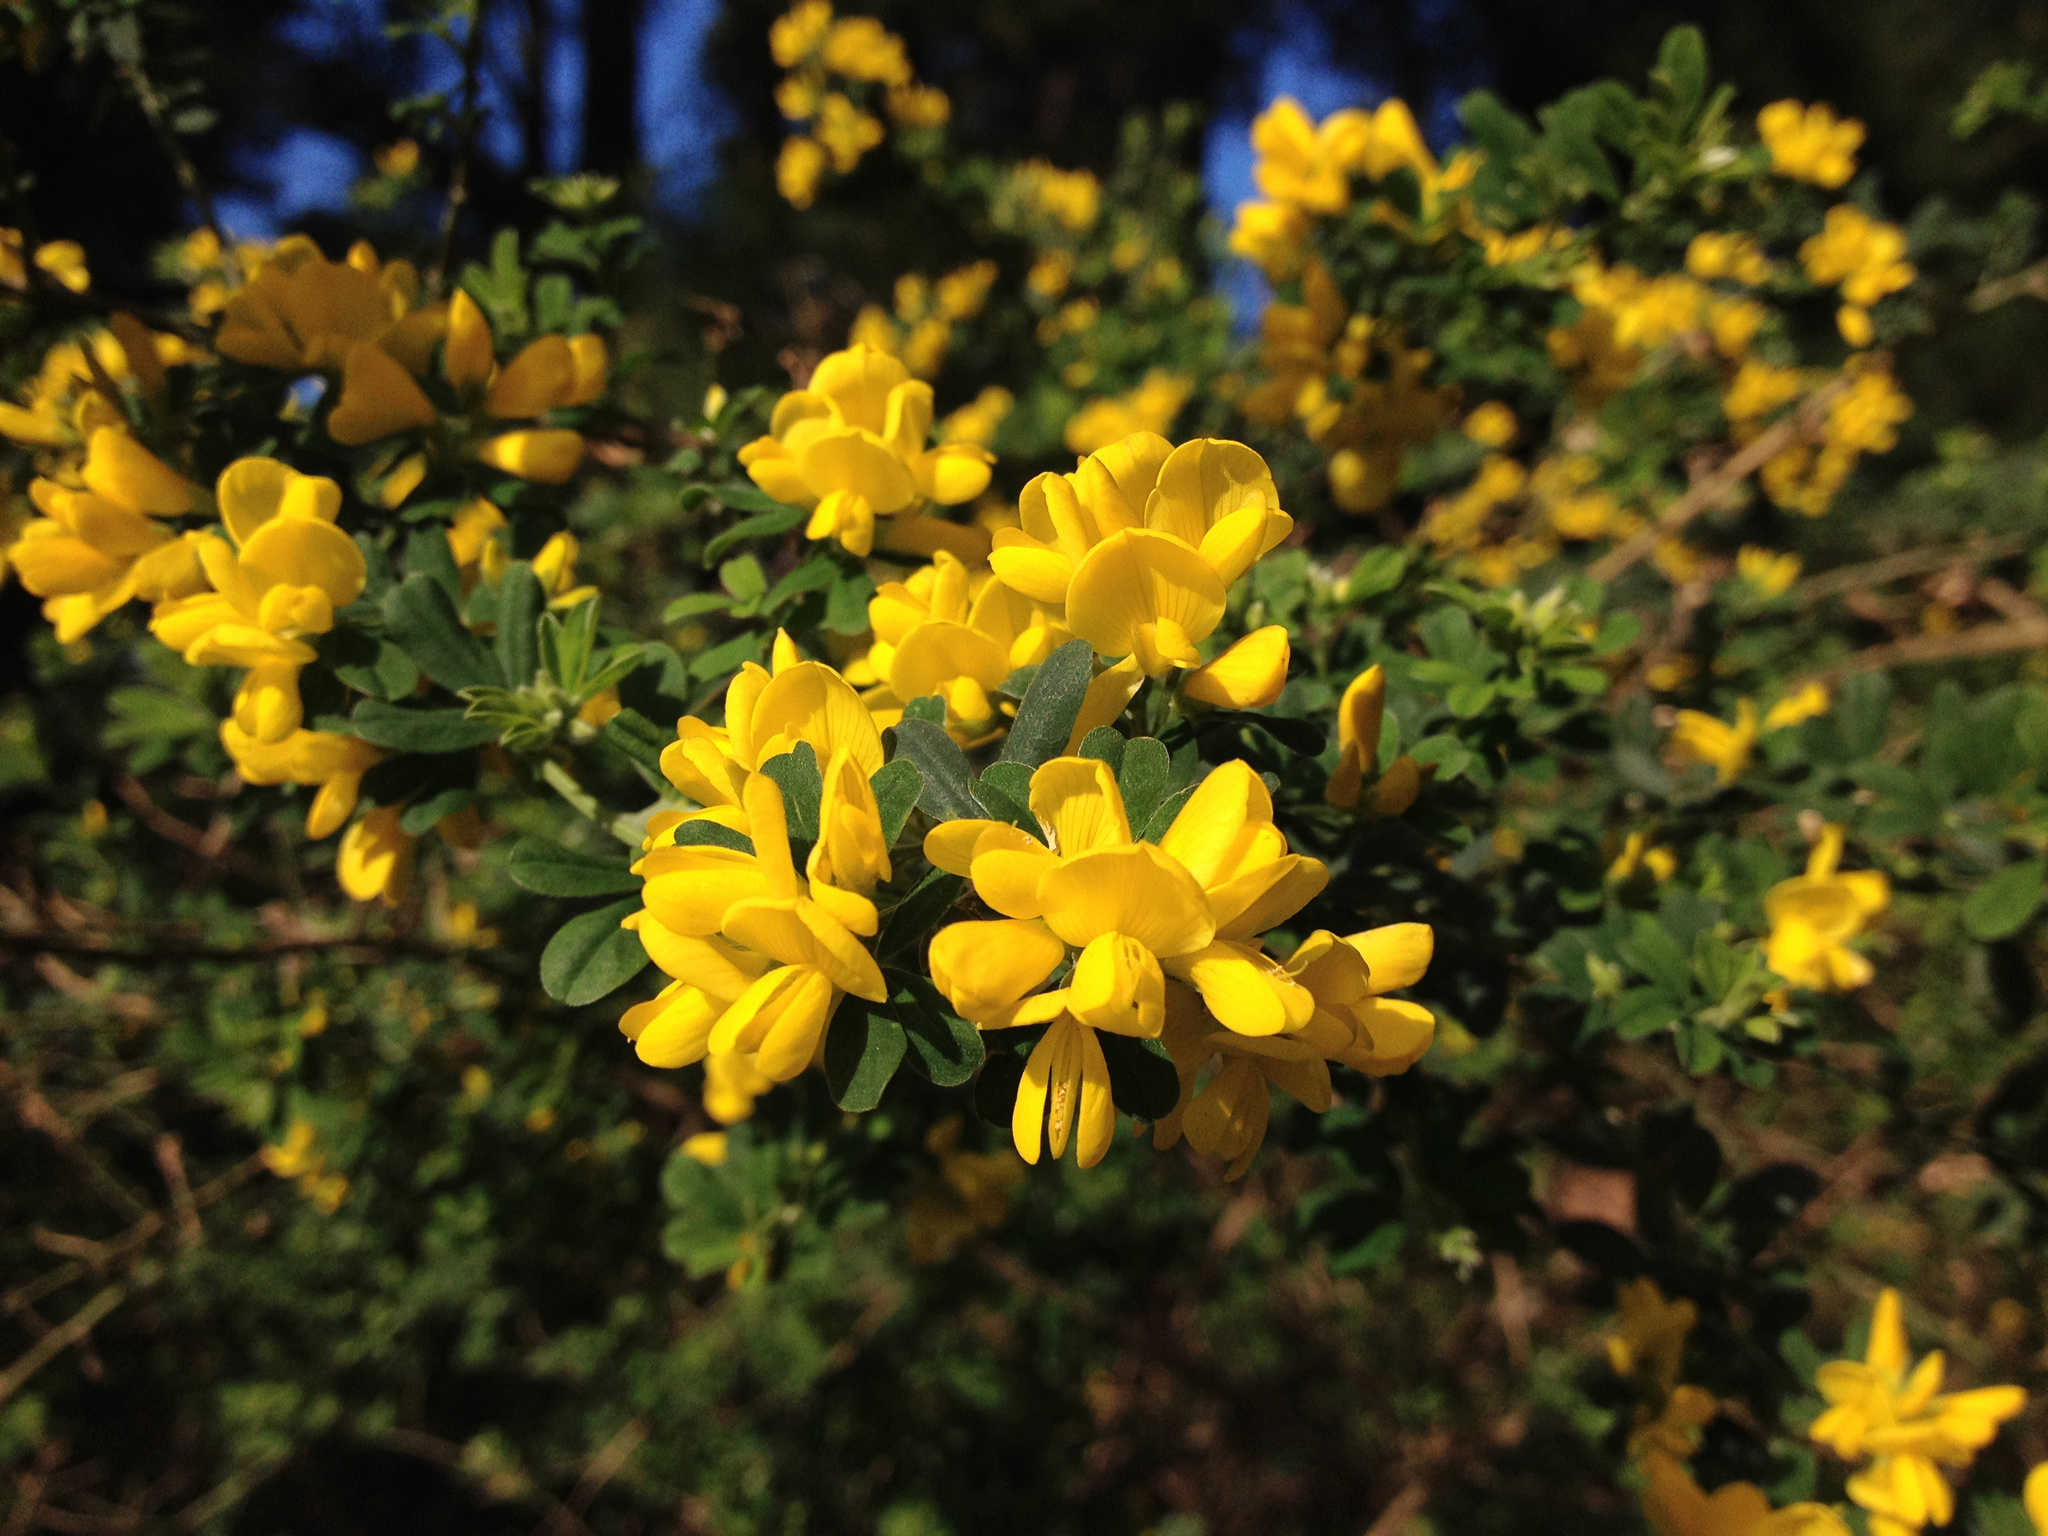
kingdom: Plantae
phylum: Tracheophyta
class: Magnoliopsida
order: Fabales
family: Fabaceae
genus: Genista
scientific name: Genista monspessulana
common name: Montpellier broom
